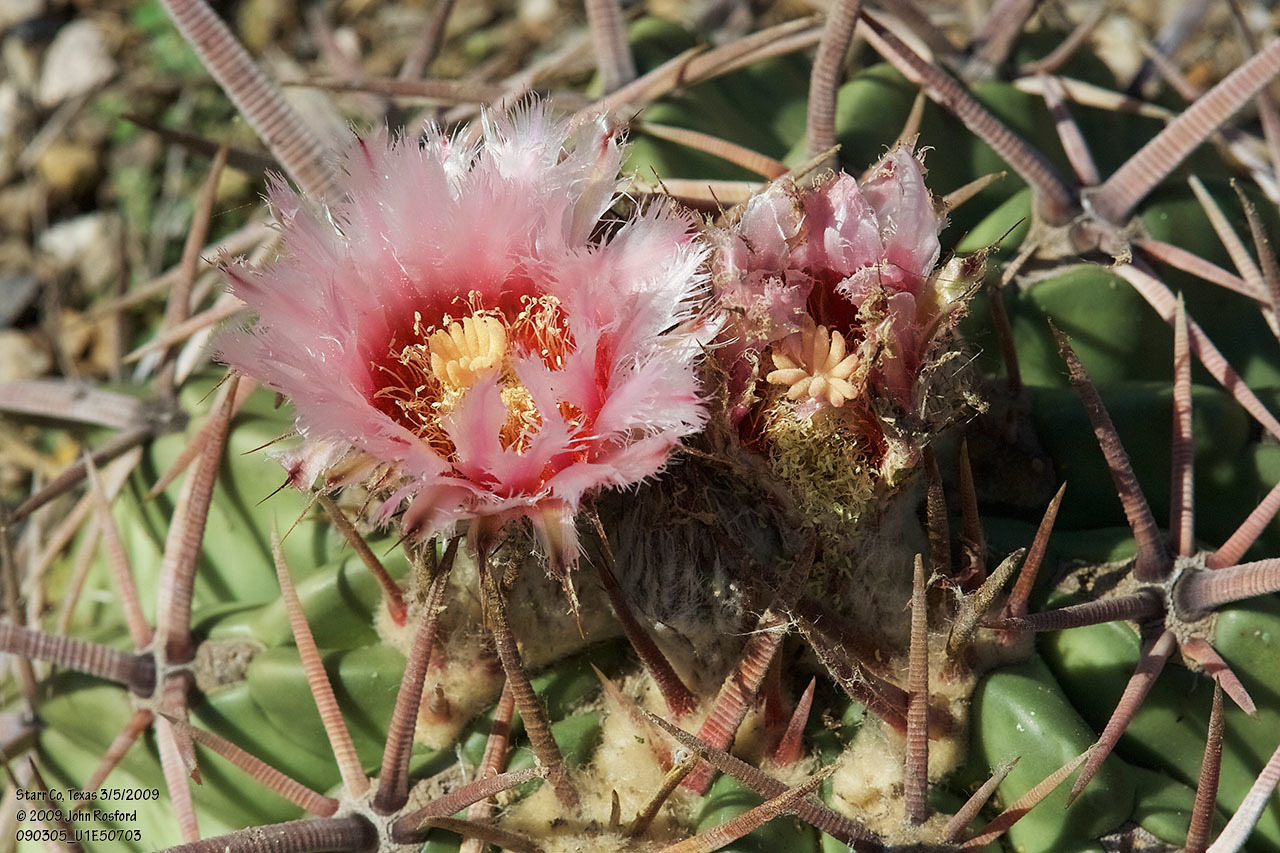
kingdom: Plantae
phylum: Tracheophyta
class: Magnoliopsida
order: Caryophyllales
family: Cactaceae
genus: Echinocactus
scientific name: Echinocactus texensis
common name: Devil's pincushion
